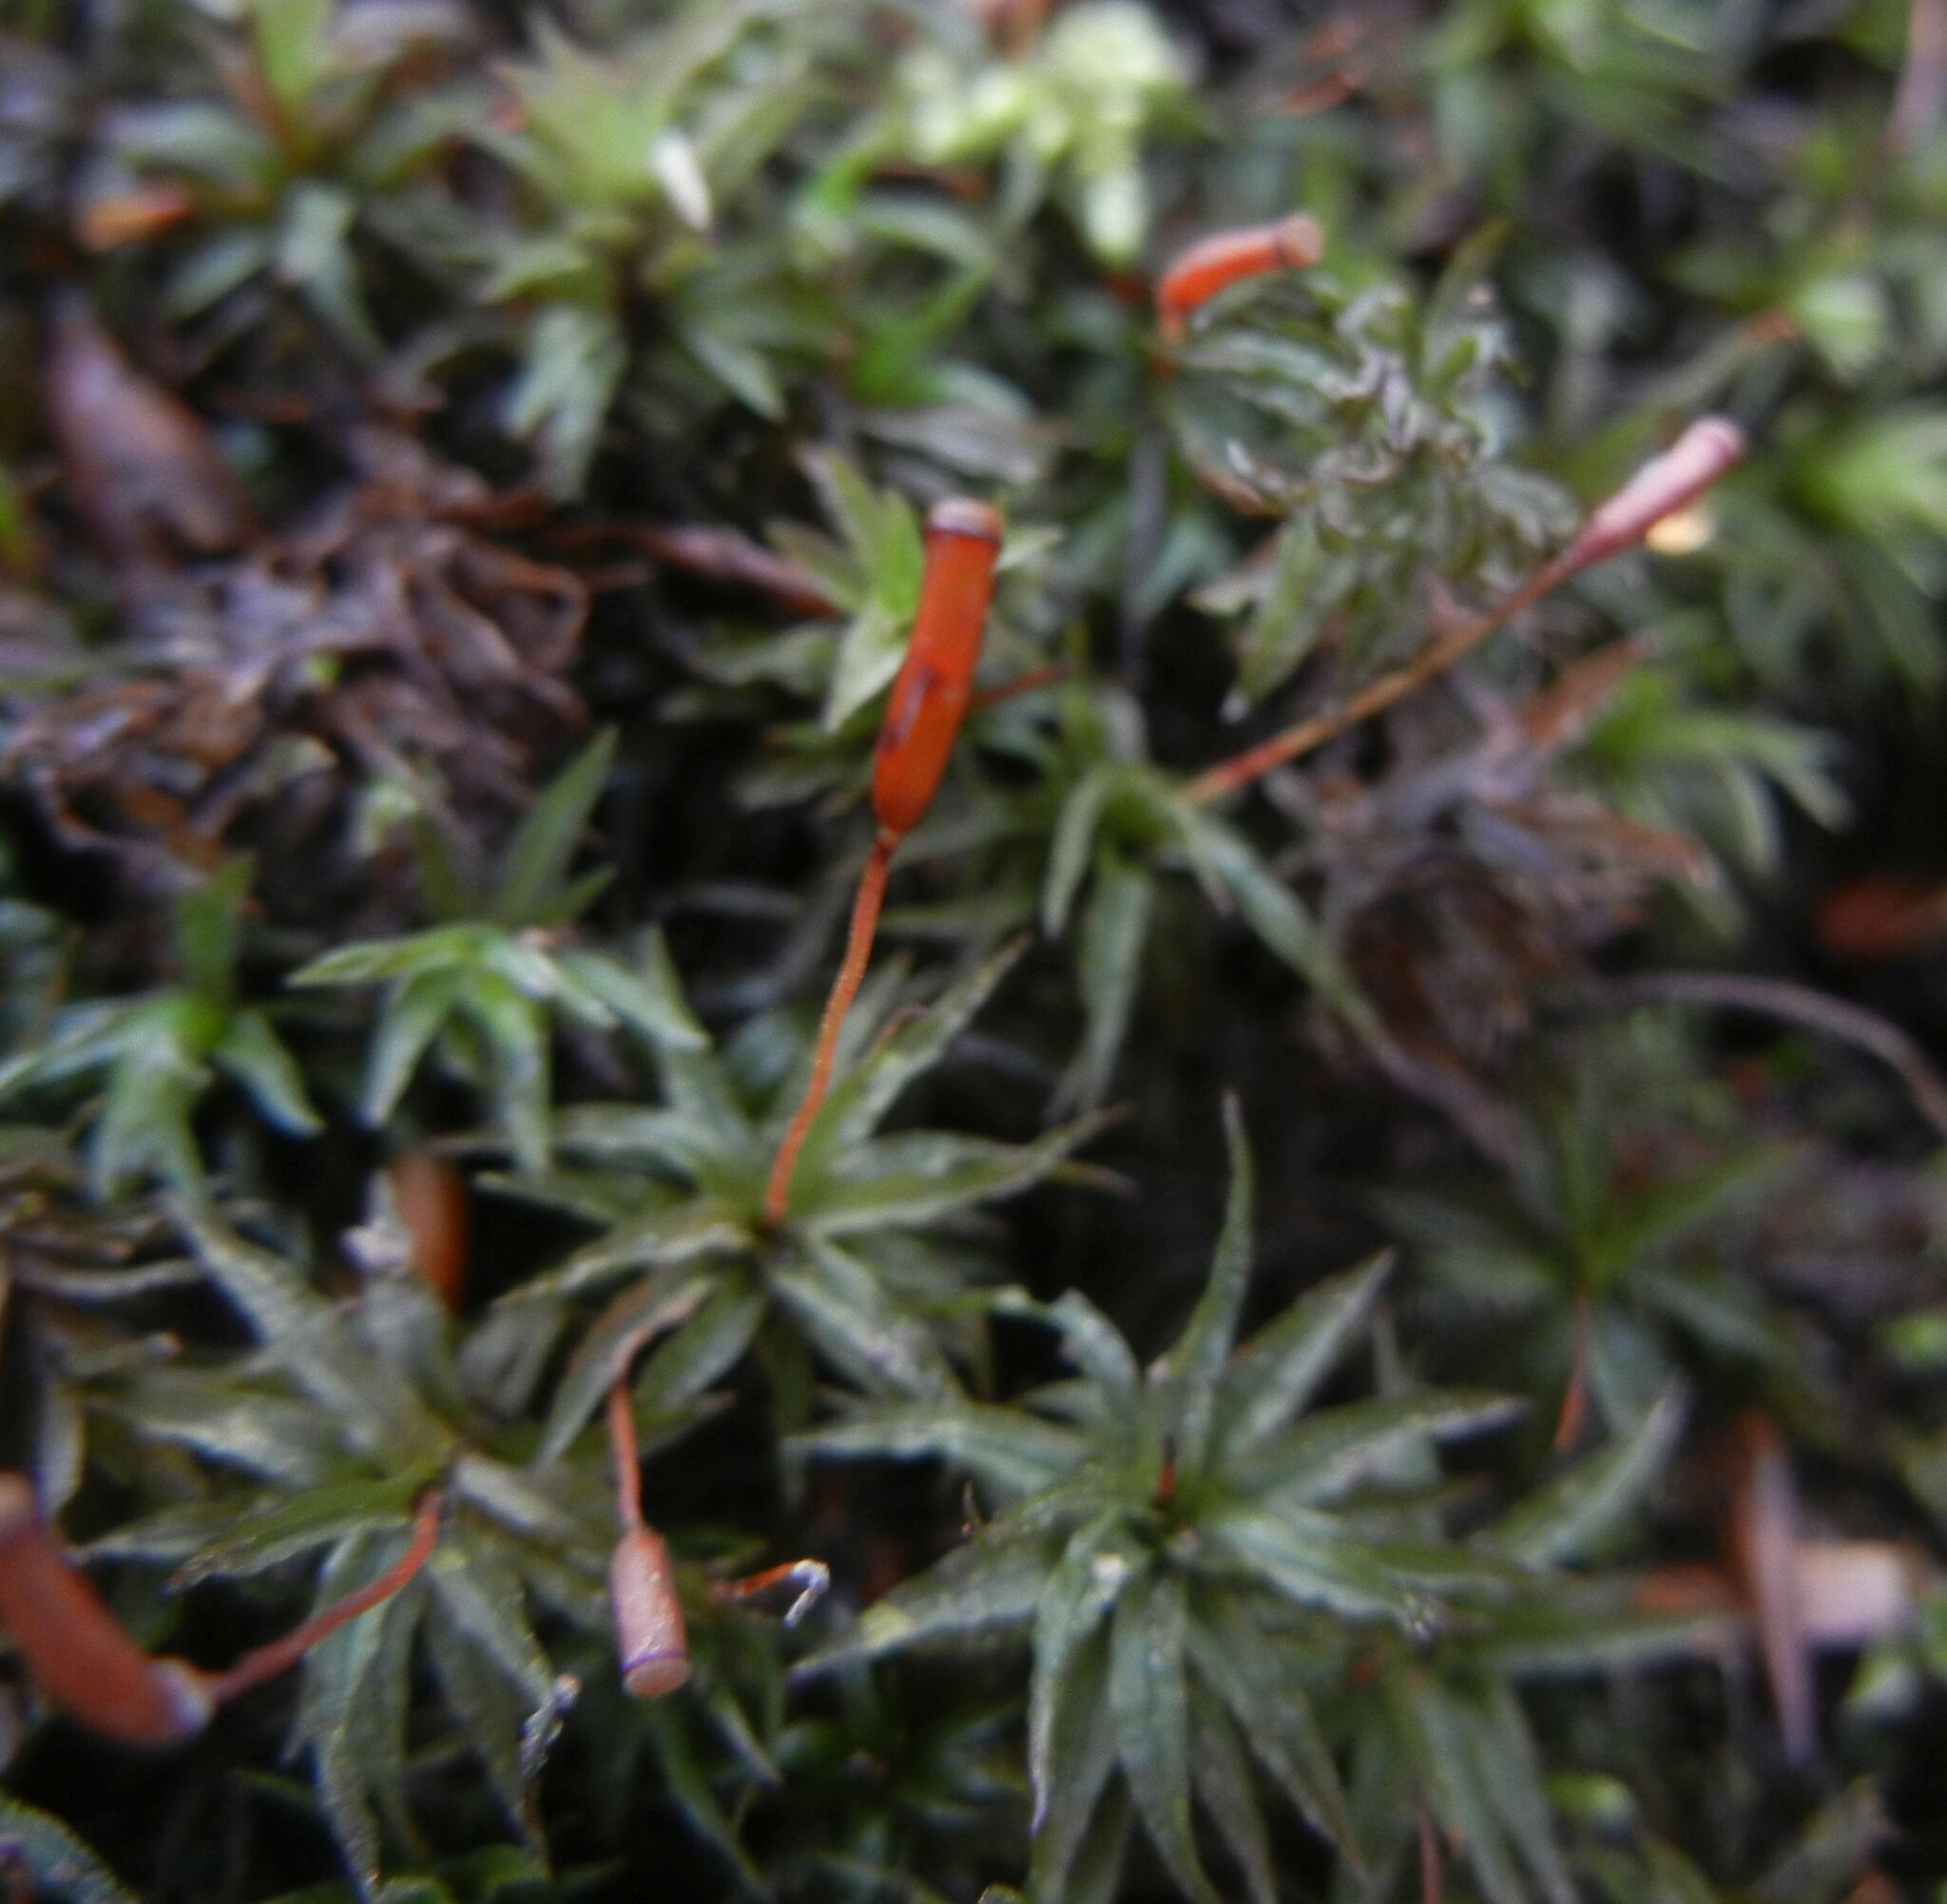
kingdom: Plantae
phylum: Bryophyta
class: Polytrichopsida
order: Polytrichales
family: Polytrichaceae
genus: Atrichum
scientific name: Atrichum undulatum
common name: Common smoothcap
